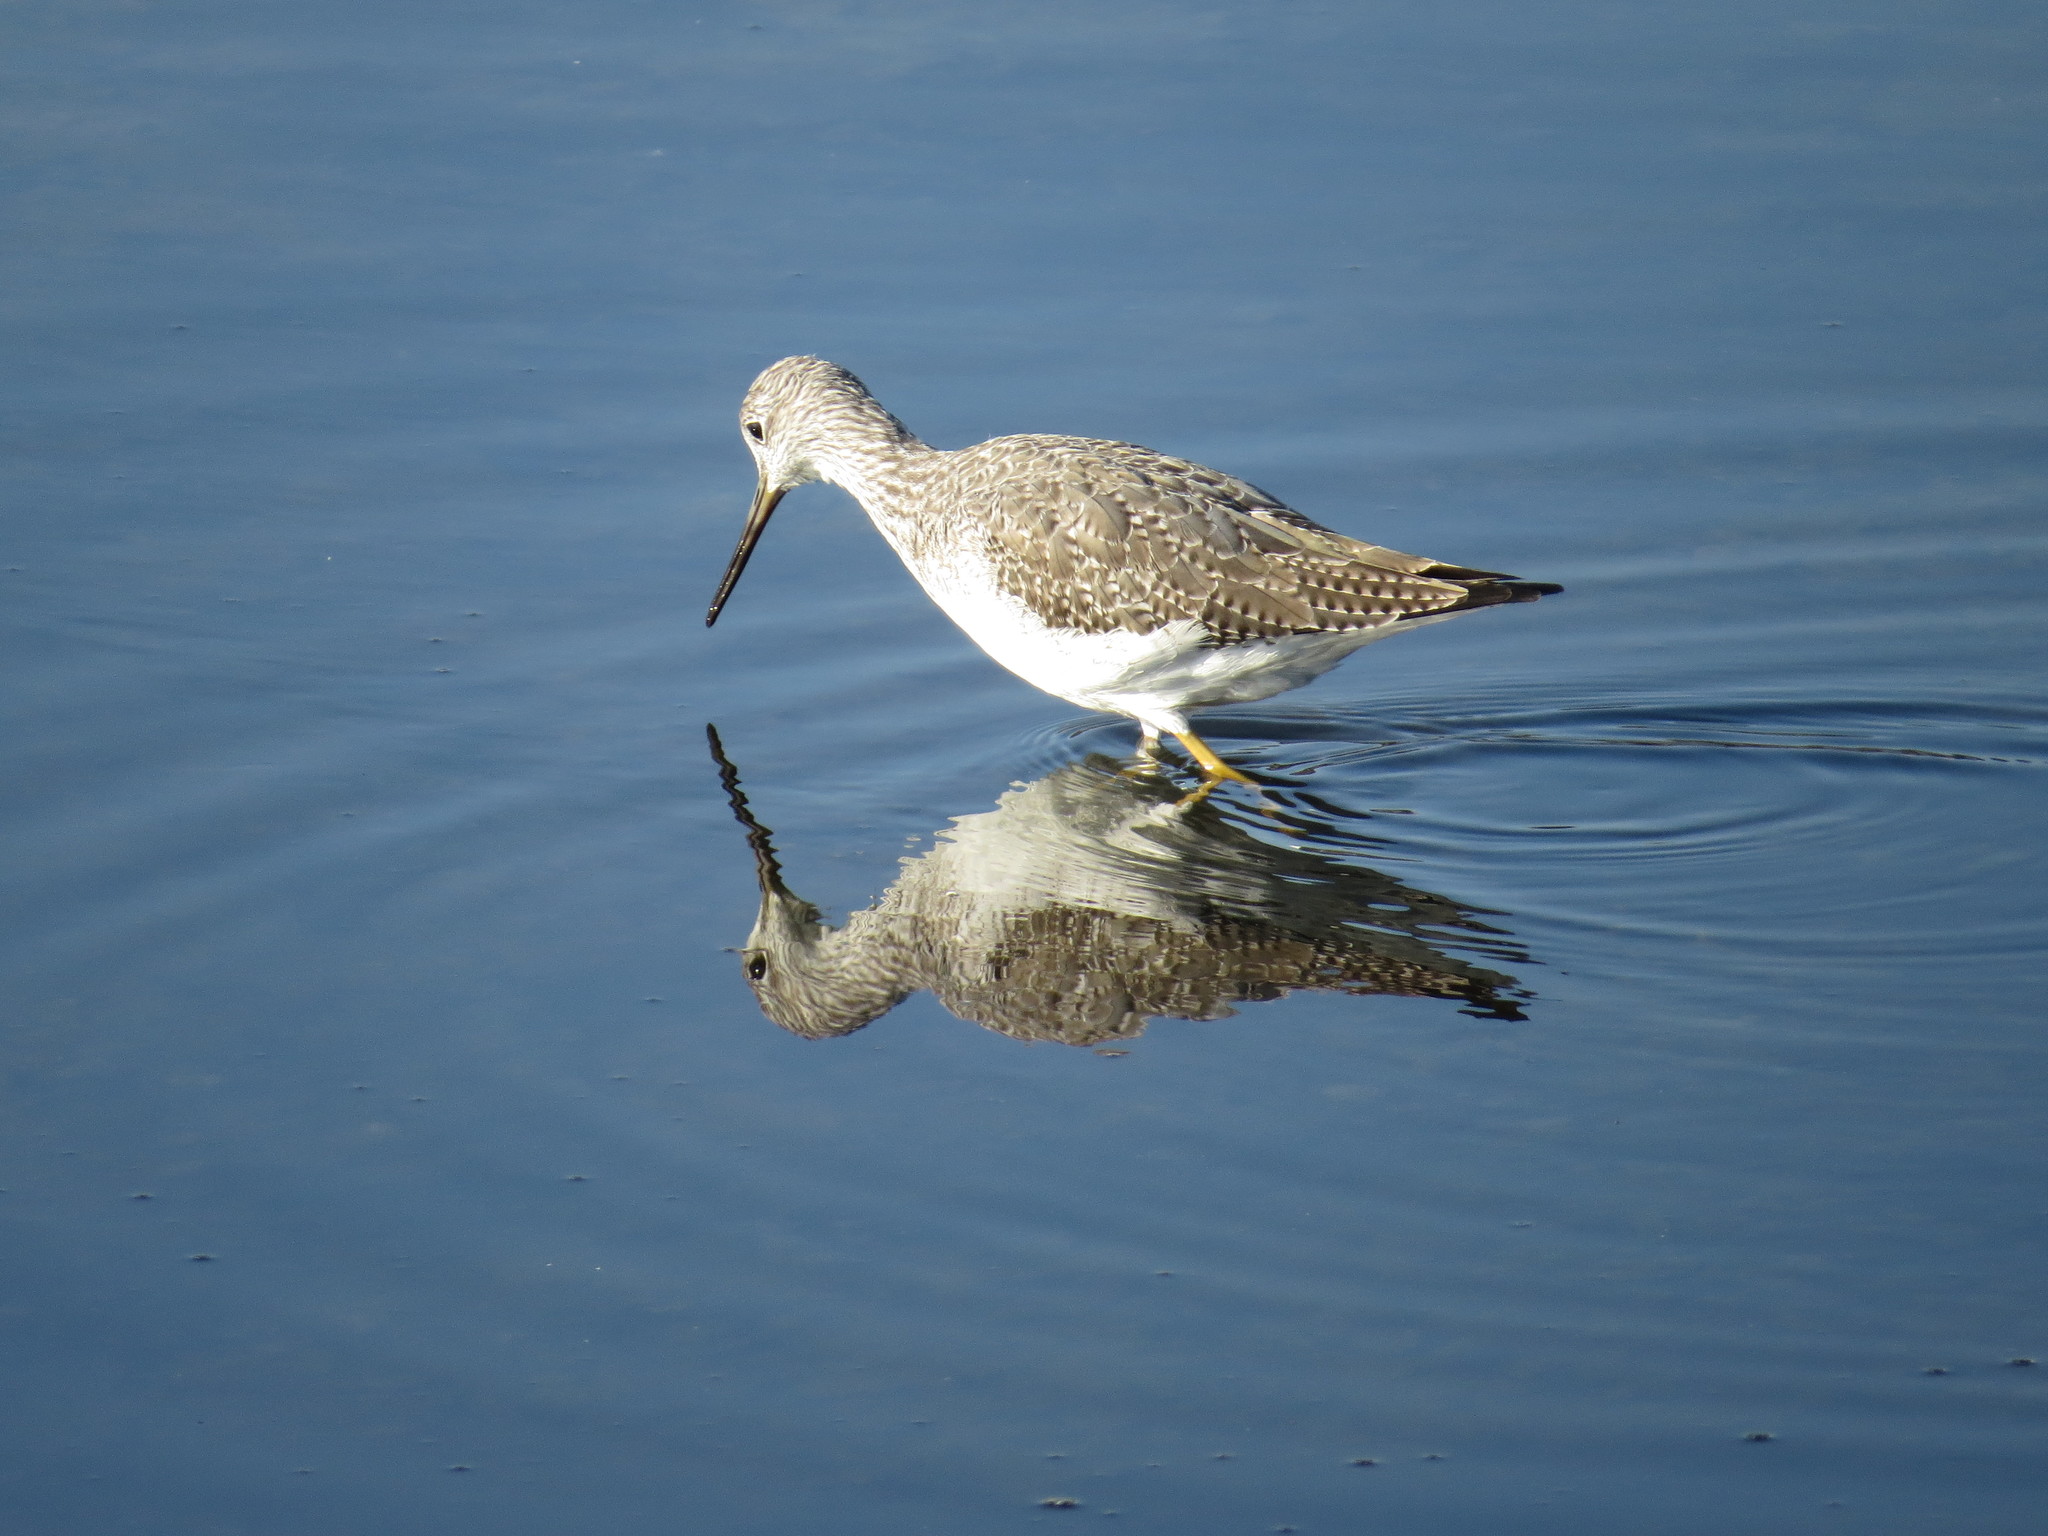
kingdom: Animalia
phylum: Chordata
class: Aves
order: Charadriiformes
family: Scolopacidae
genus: Tringa
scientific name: Tringa melanoleuca
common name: Greater yellowlegs
